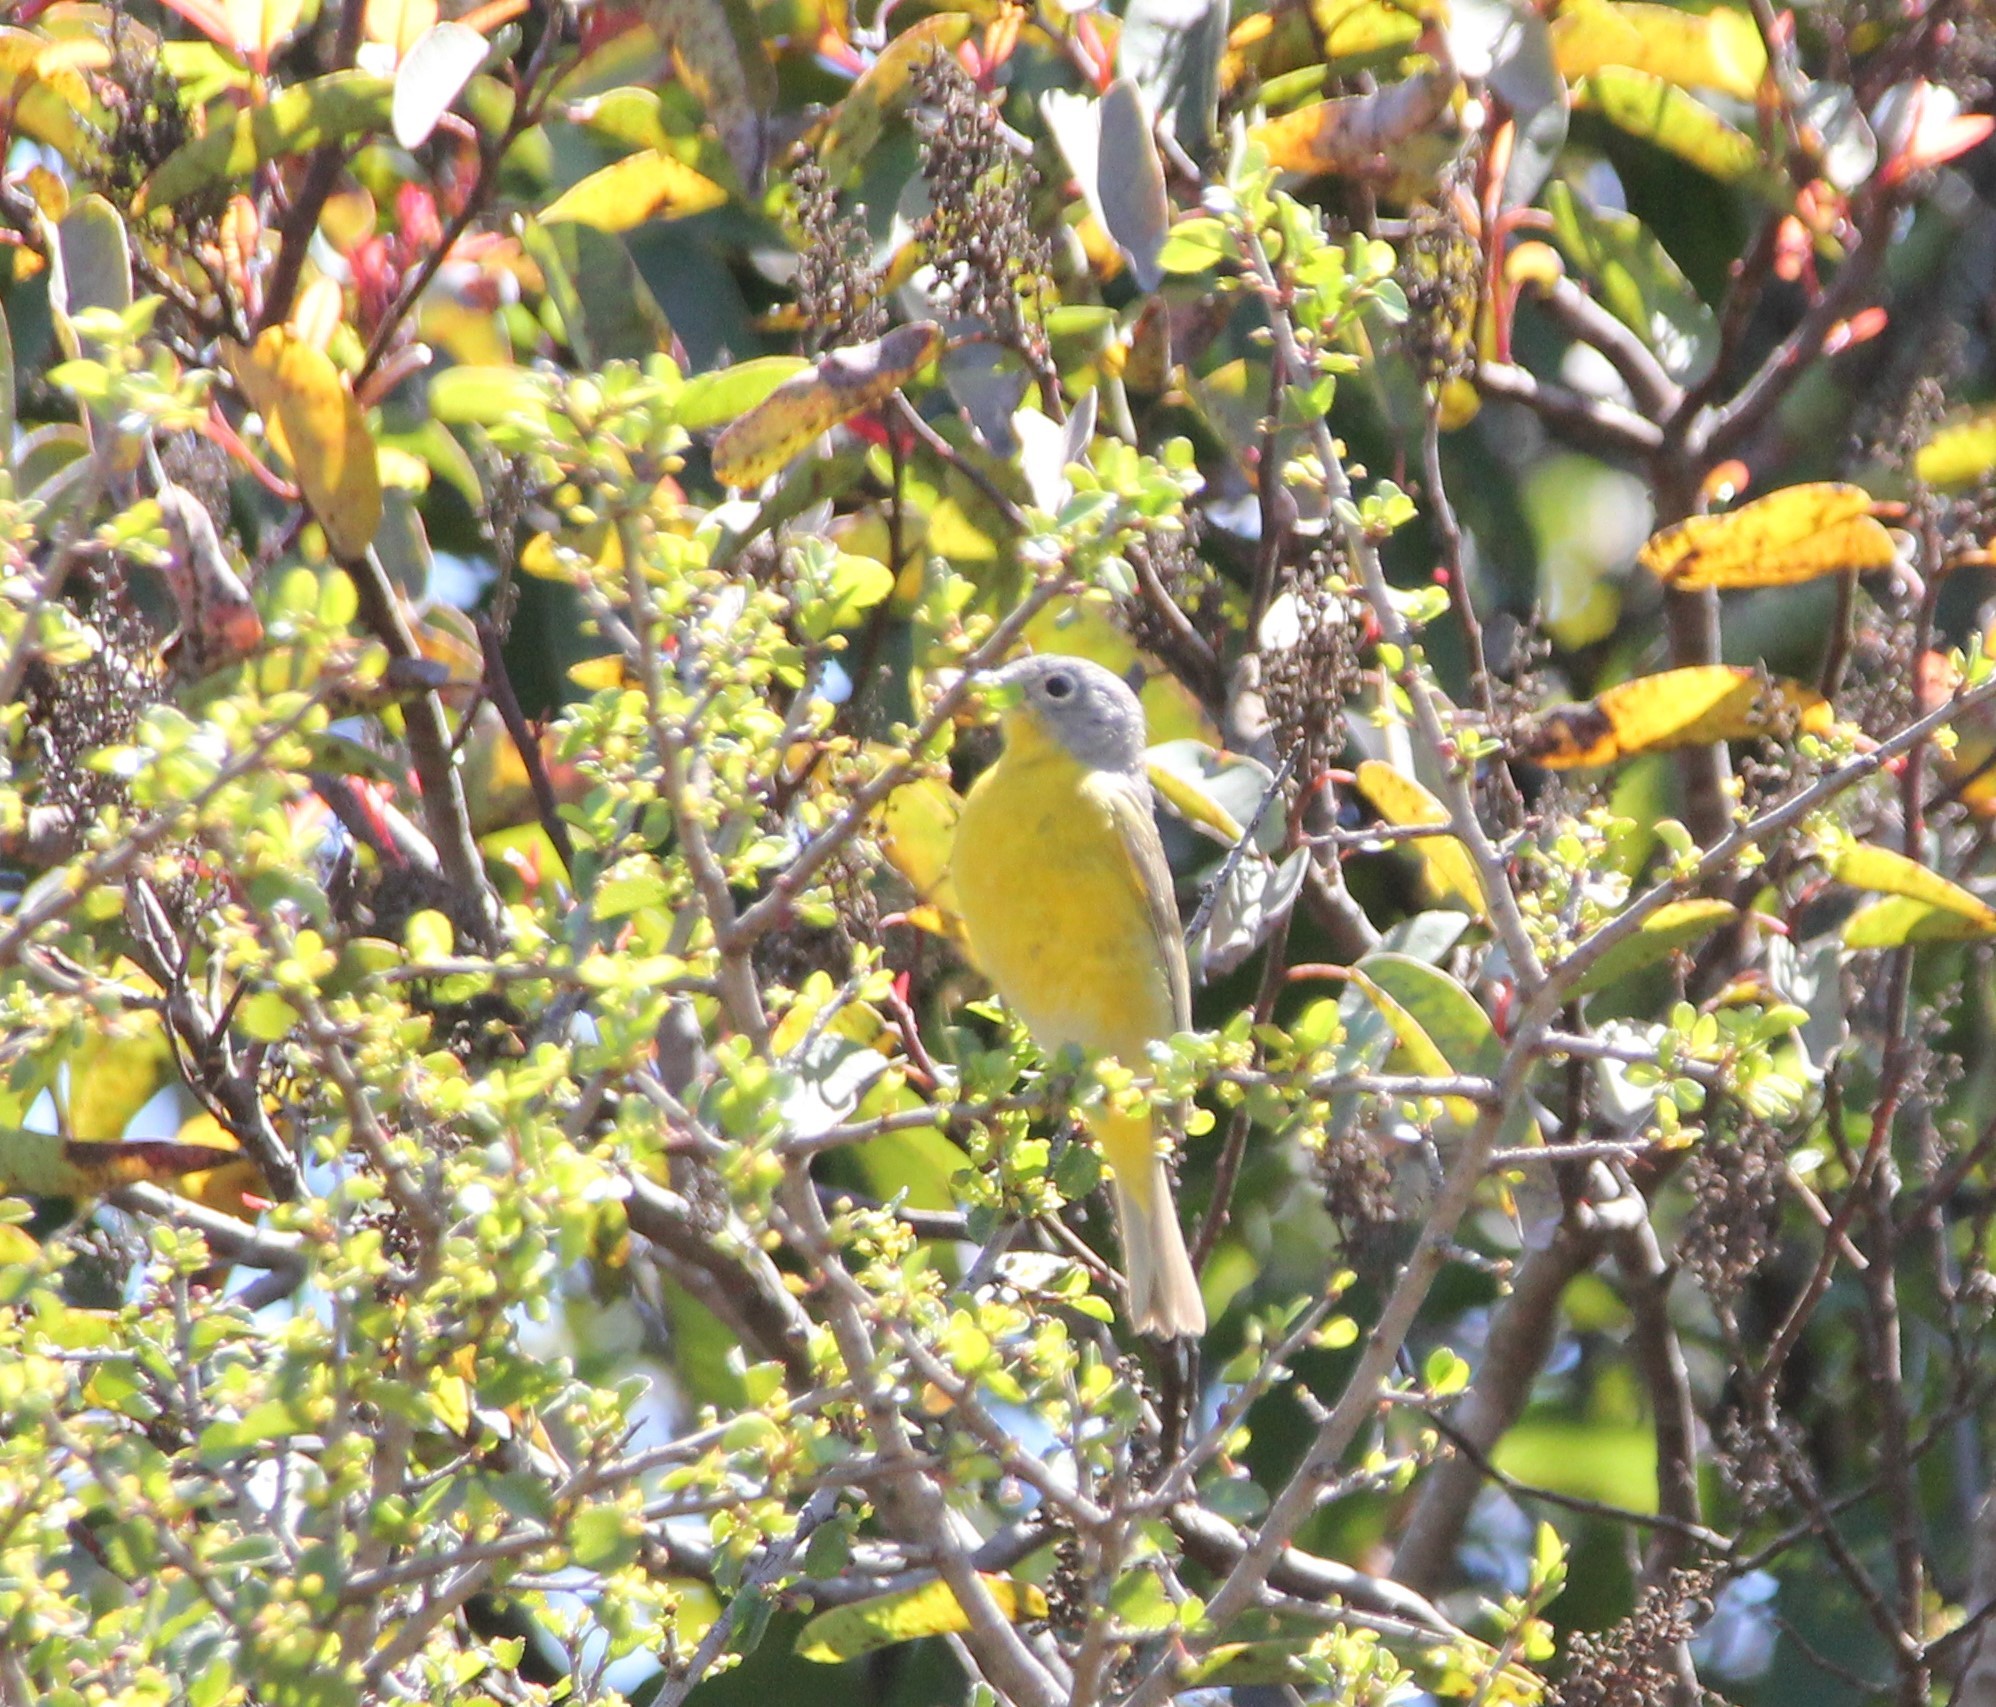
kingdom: Animalia
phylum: Chordata
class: Aves
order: Passeriformes
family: Parulidae
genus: Leiothlypis
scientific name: Leiothlypis ruficapilla
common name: Nashville warbler
